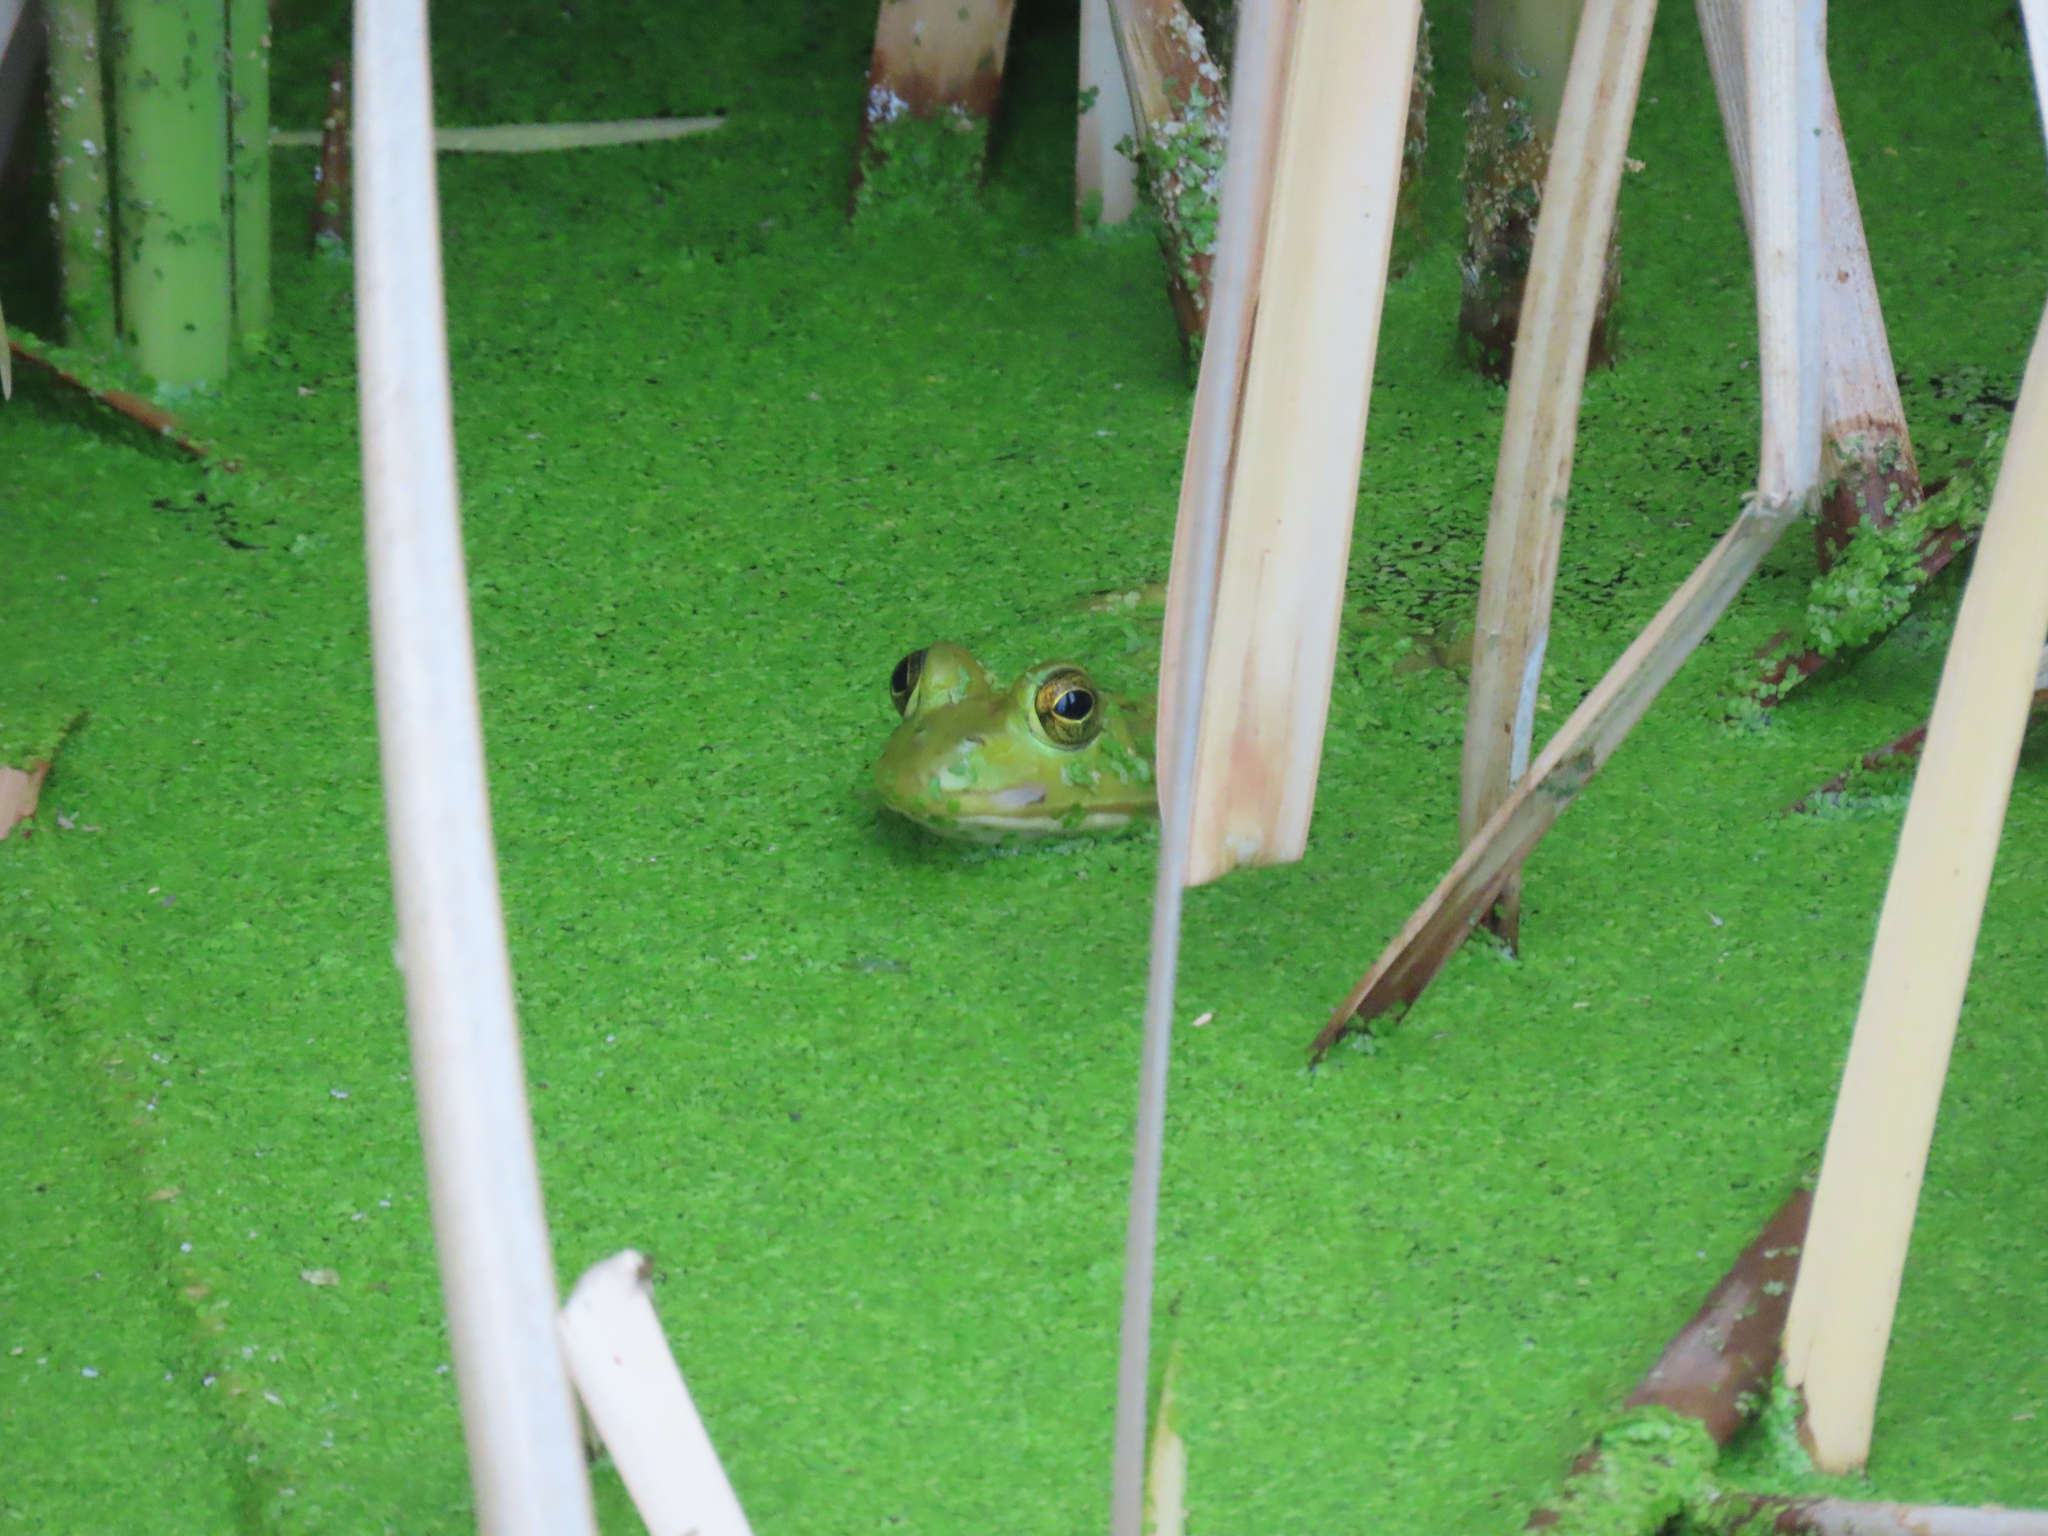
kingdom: Animalia
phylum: Chordata
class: Amphibia
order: Anura
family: Ranidae
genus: Lithobates
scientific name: Lithobates catesbeianus
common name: American bullfrog
